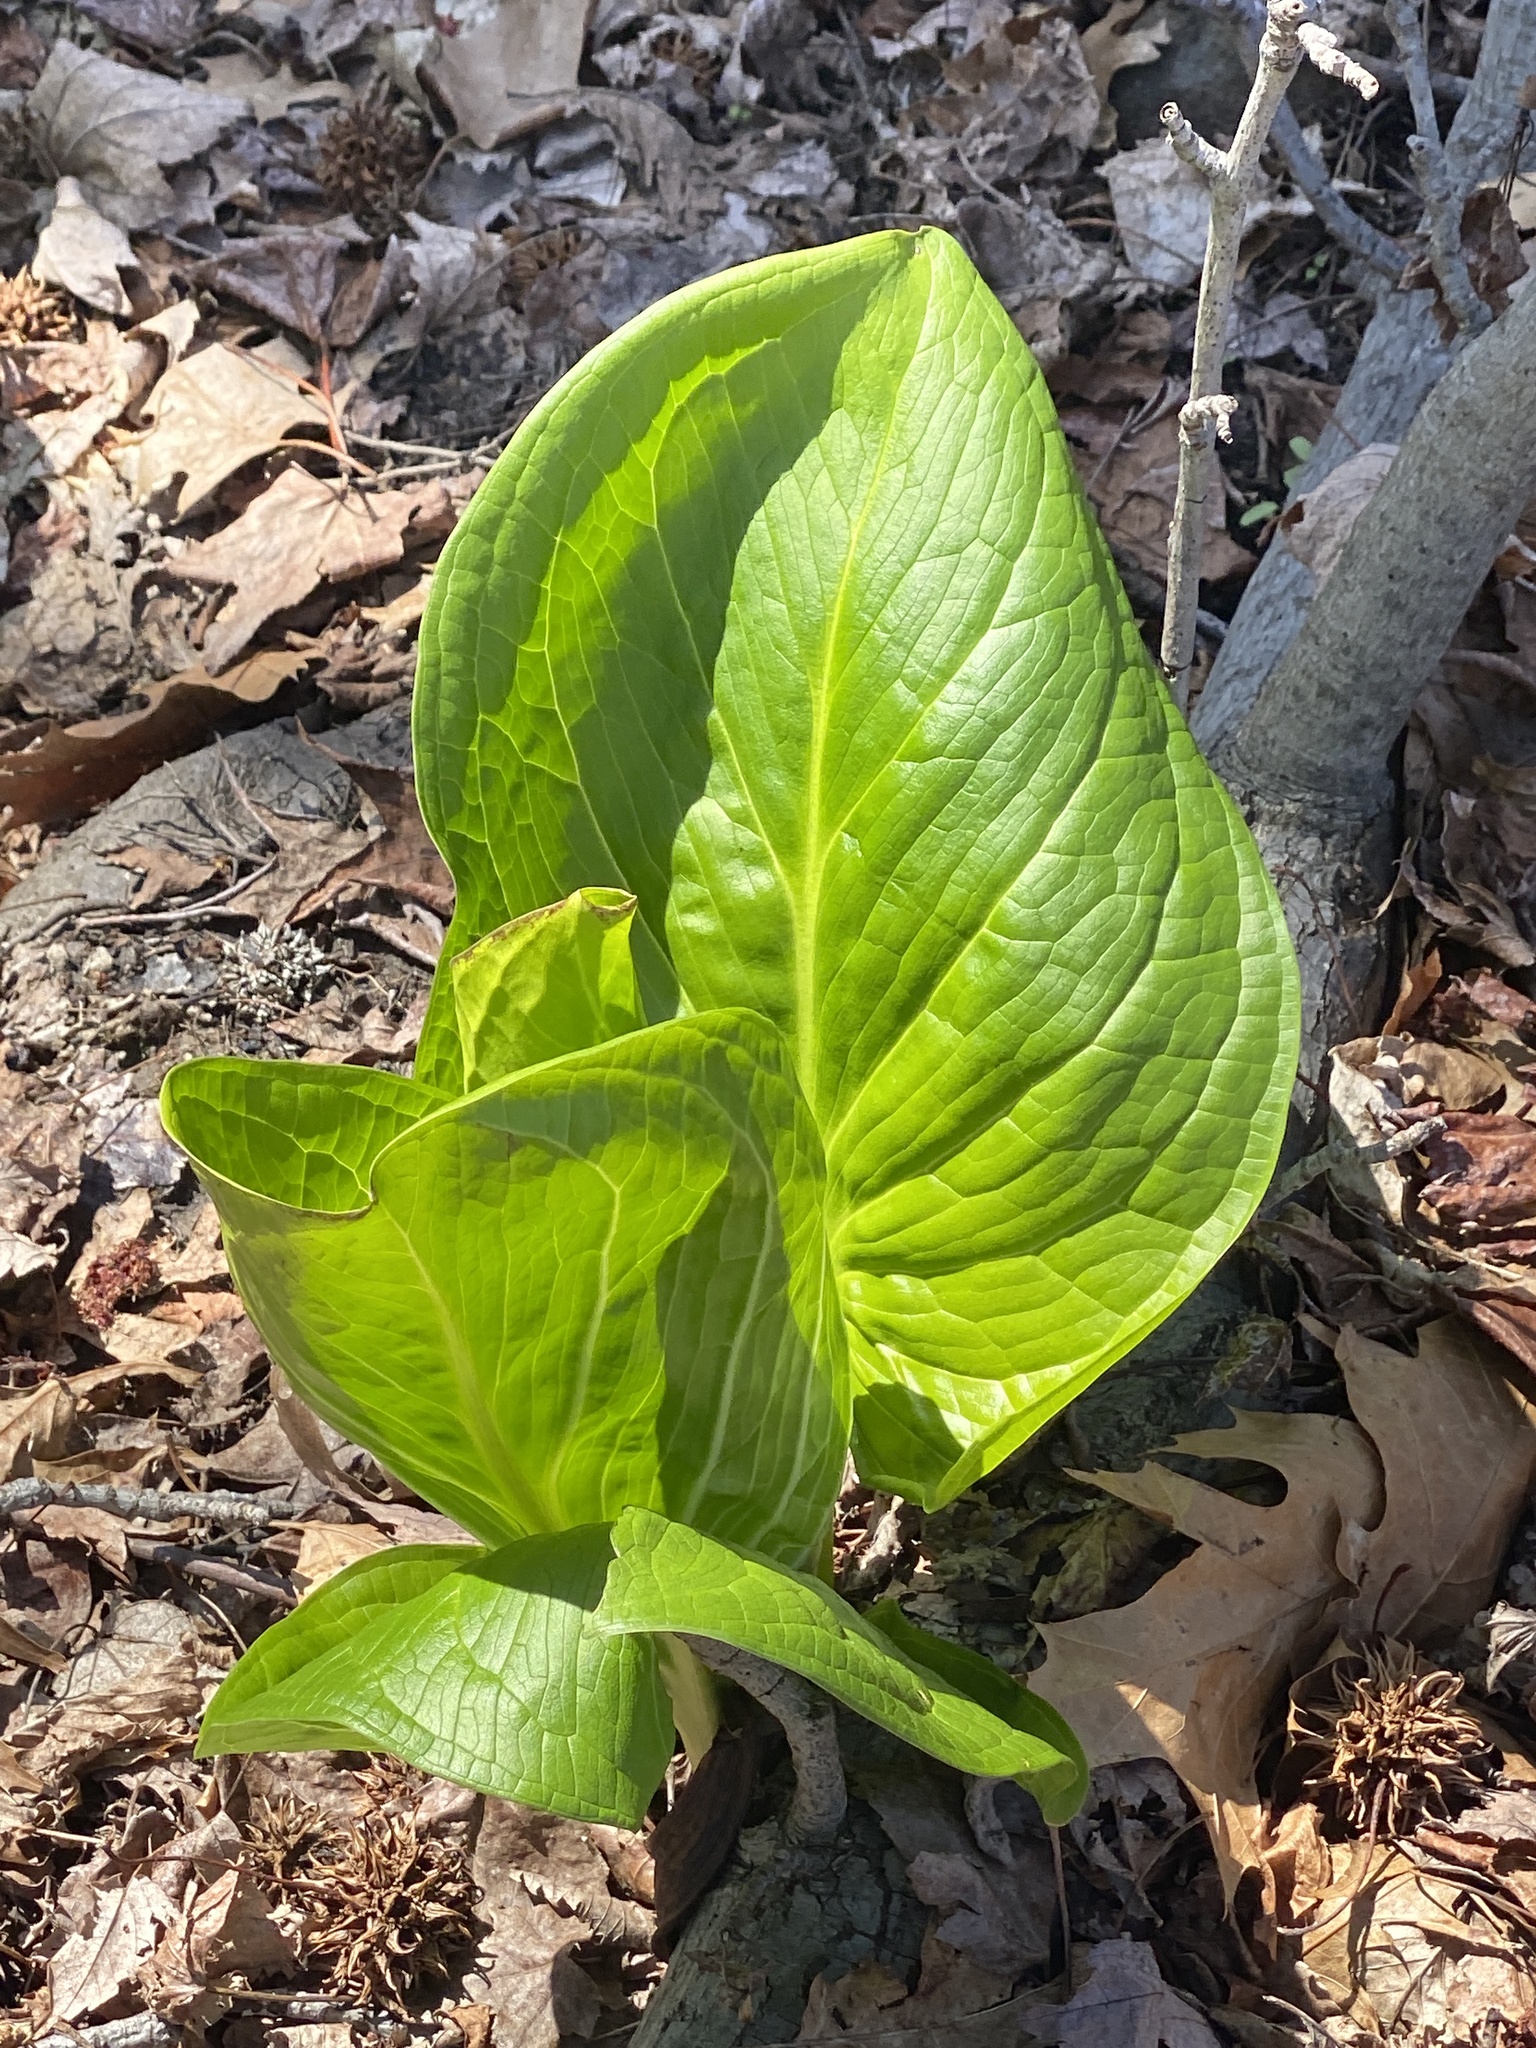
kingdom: Plantae
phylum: Tracheophyta
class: Liliopsida
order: Alismatales
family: Araceae
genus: Symplocarpus
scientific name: Symplocarpus foetidus
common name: Eastern skunk cabbage
